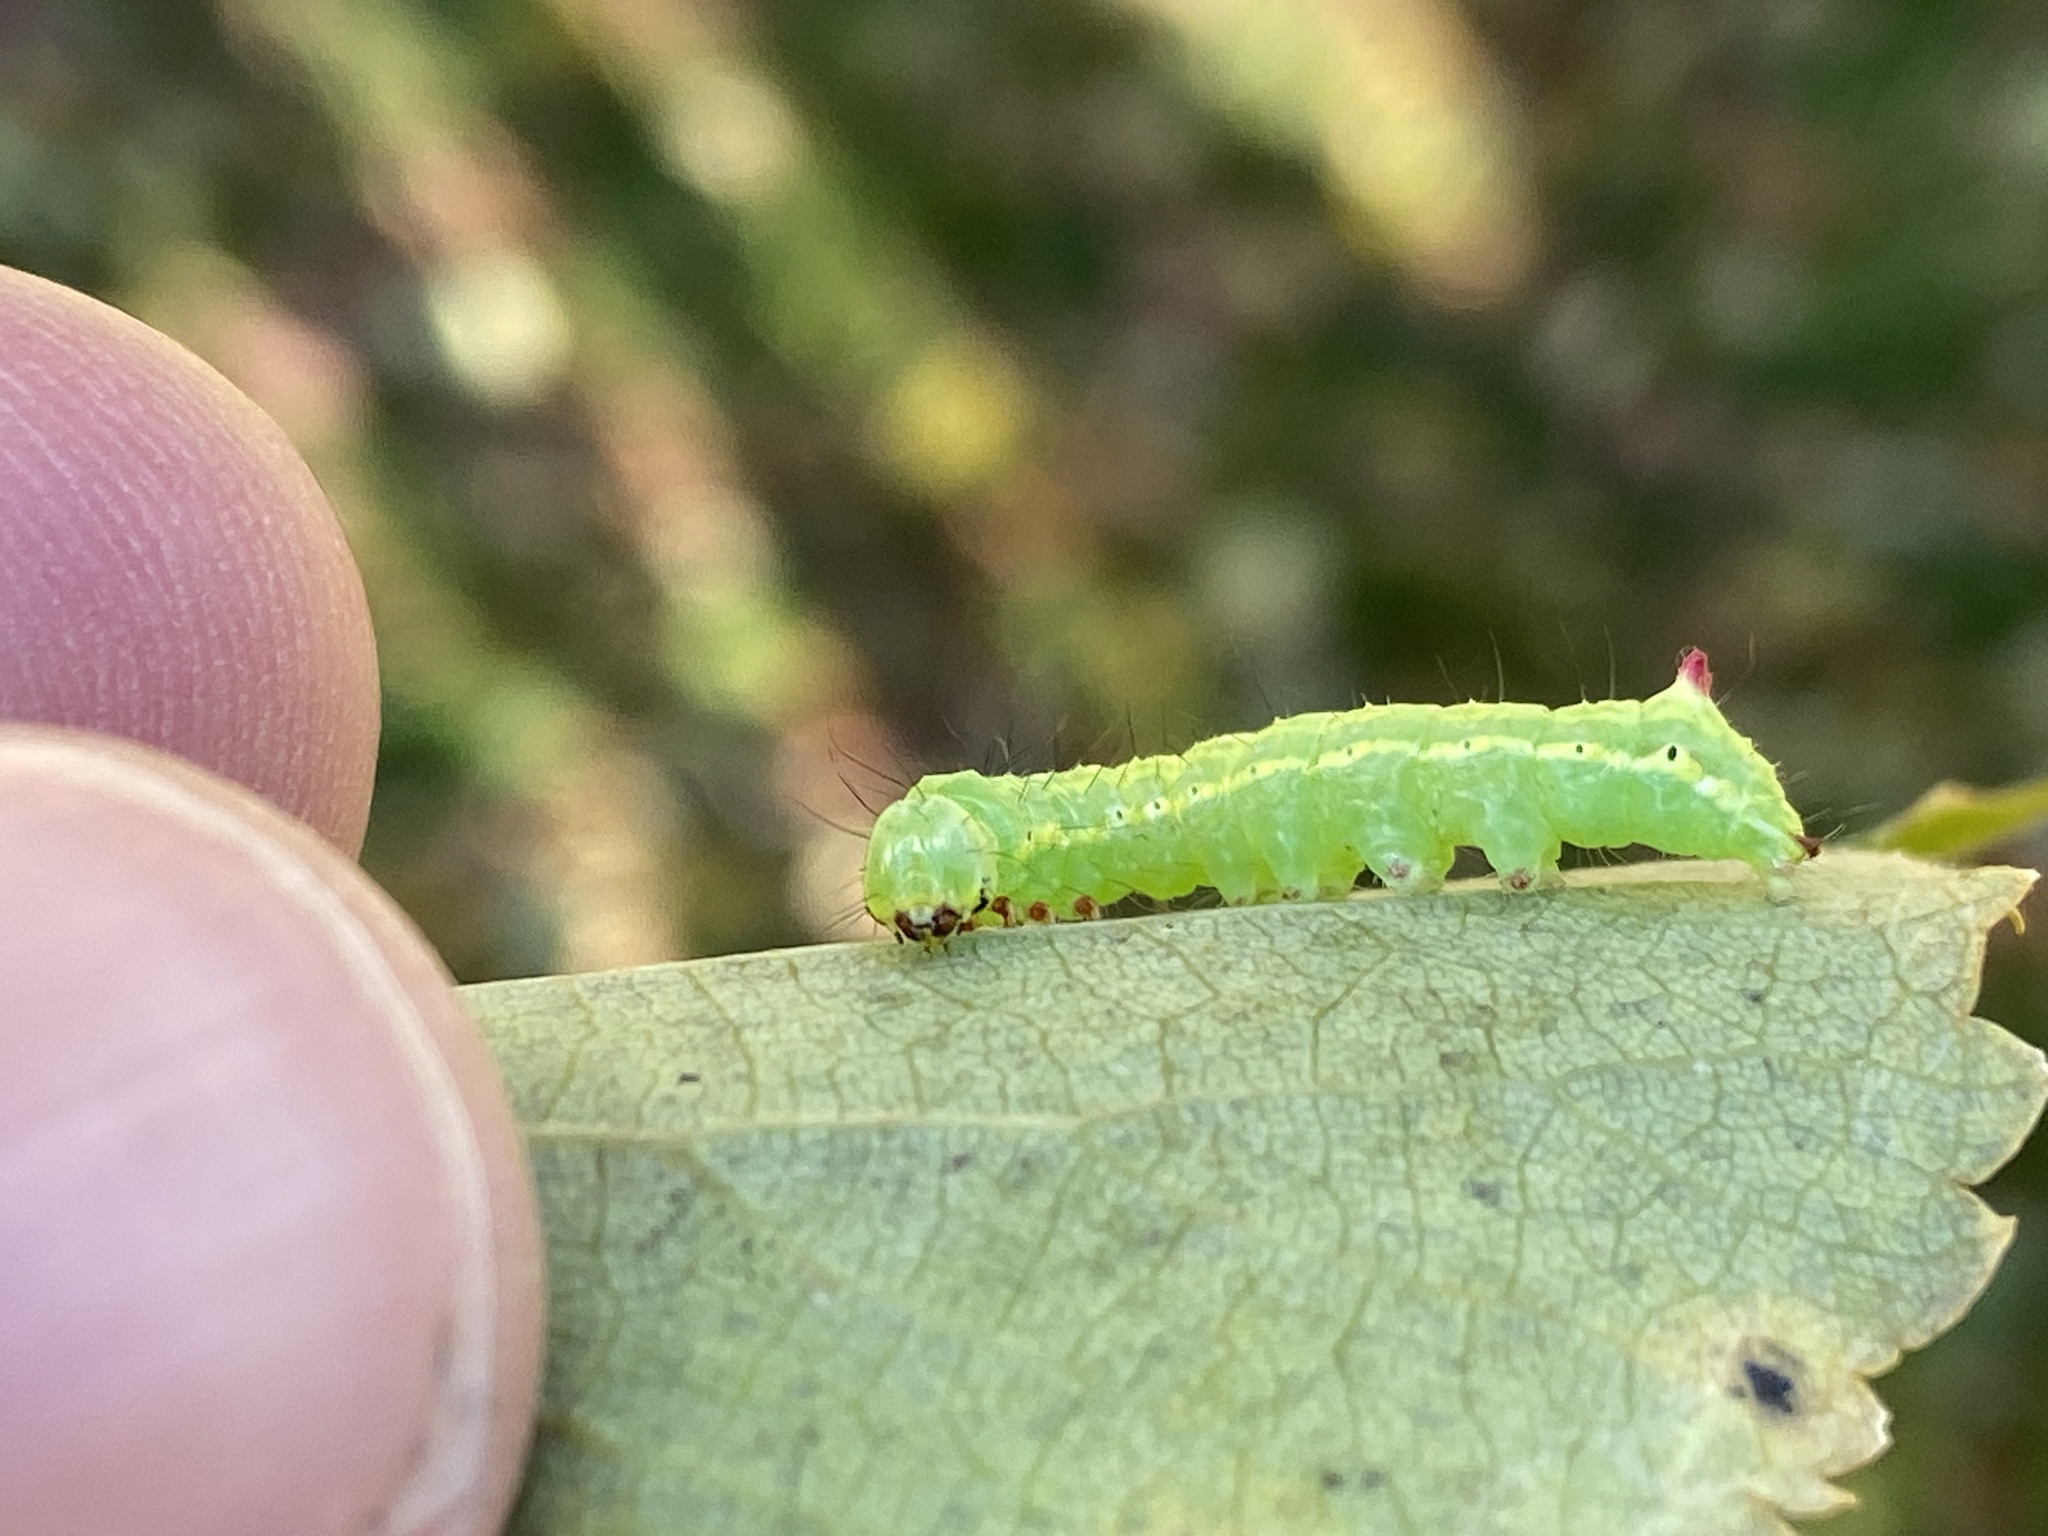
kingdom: Animalia
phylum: Arthropoda
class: Insecta
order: Lepidoptera
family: Notodontidae
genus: Ptilodon
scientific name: Ptilodon capucina
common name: Coxcomb prominent
